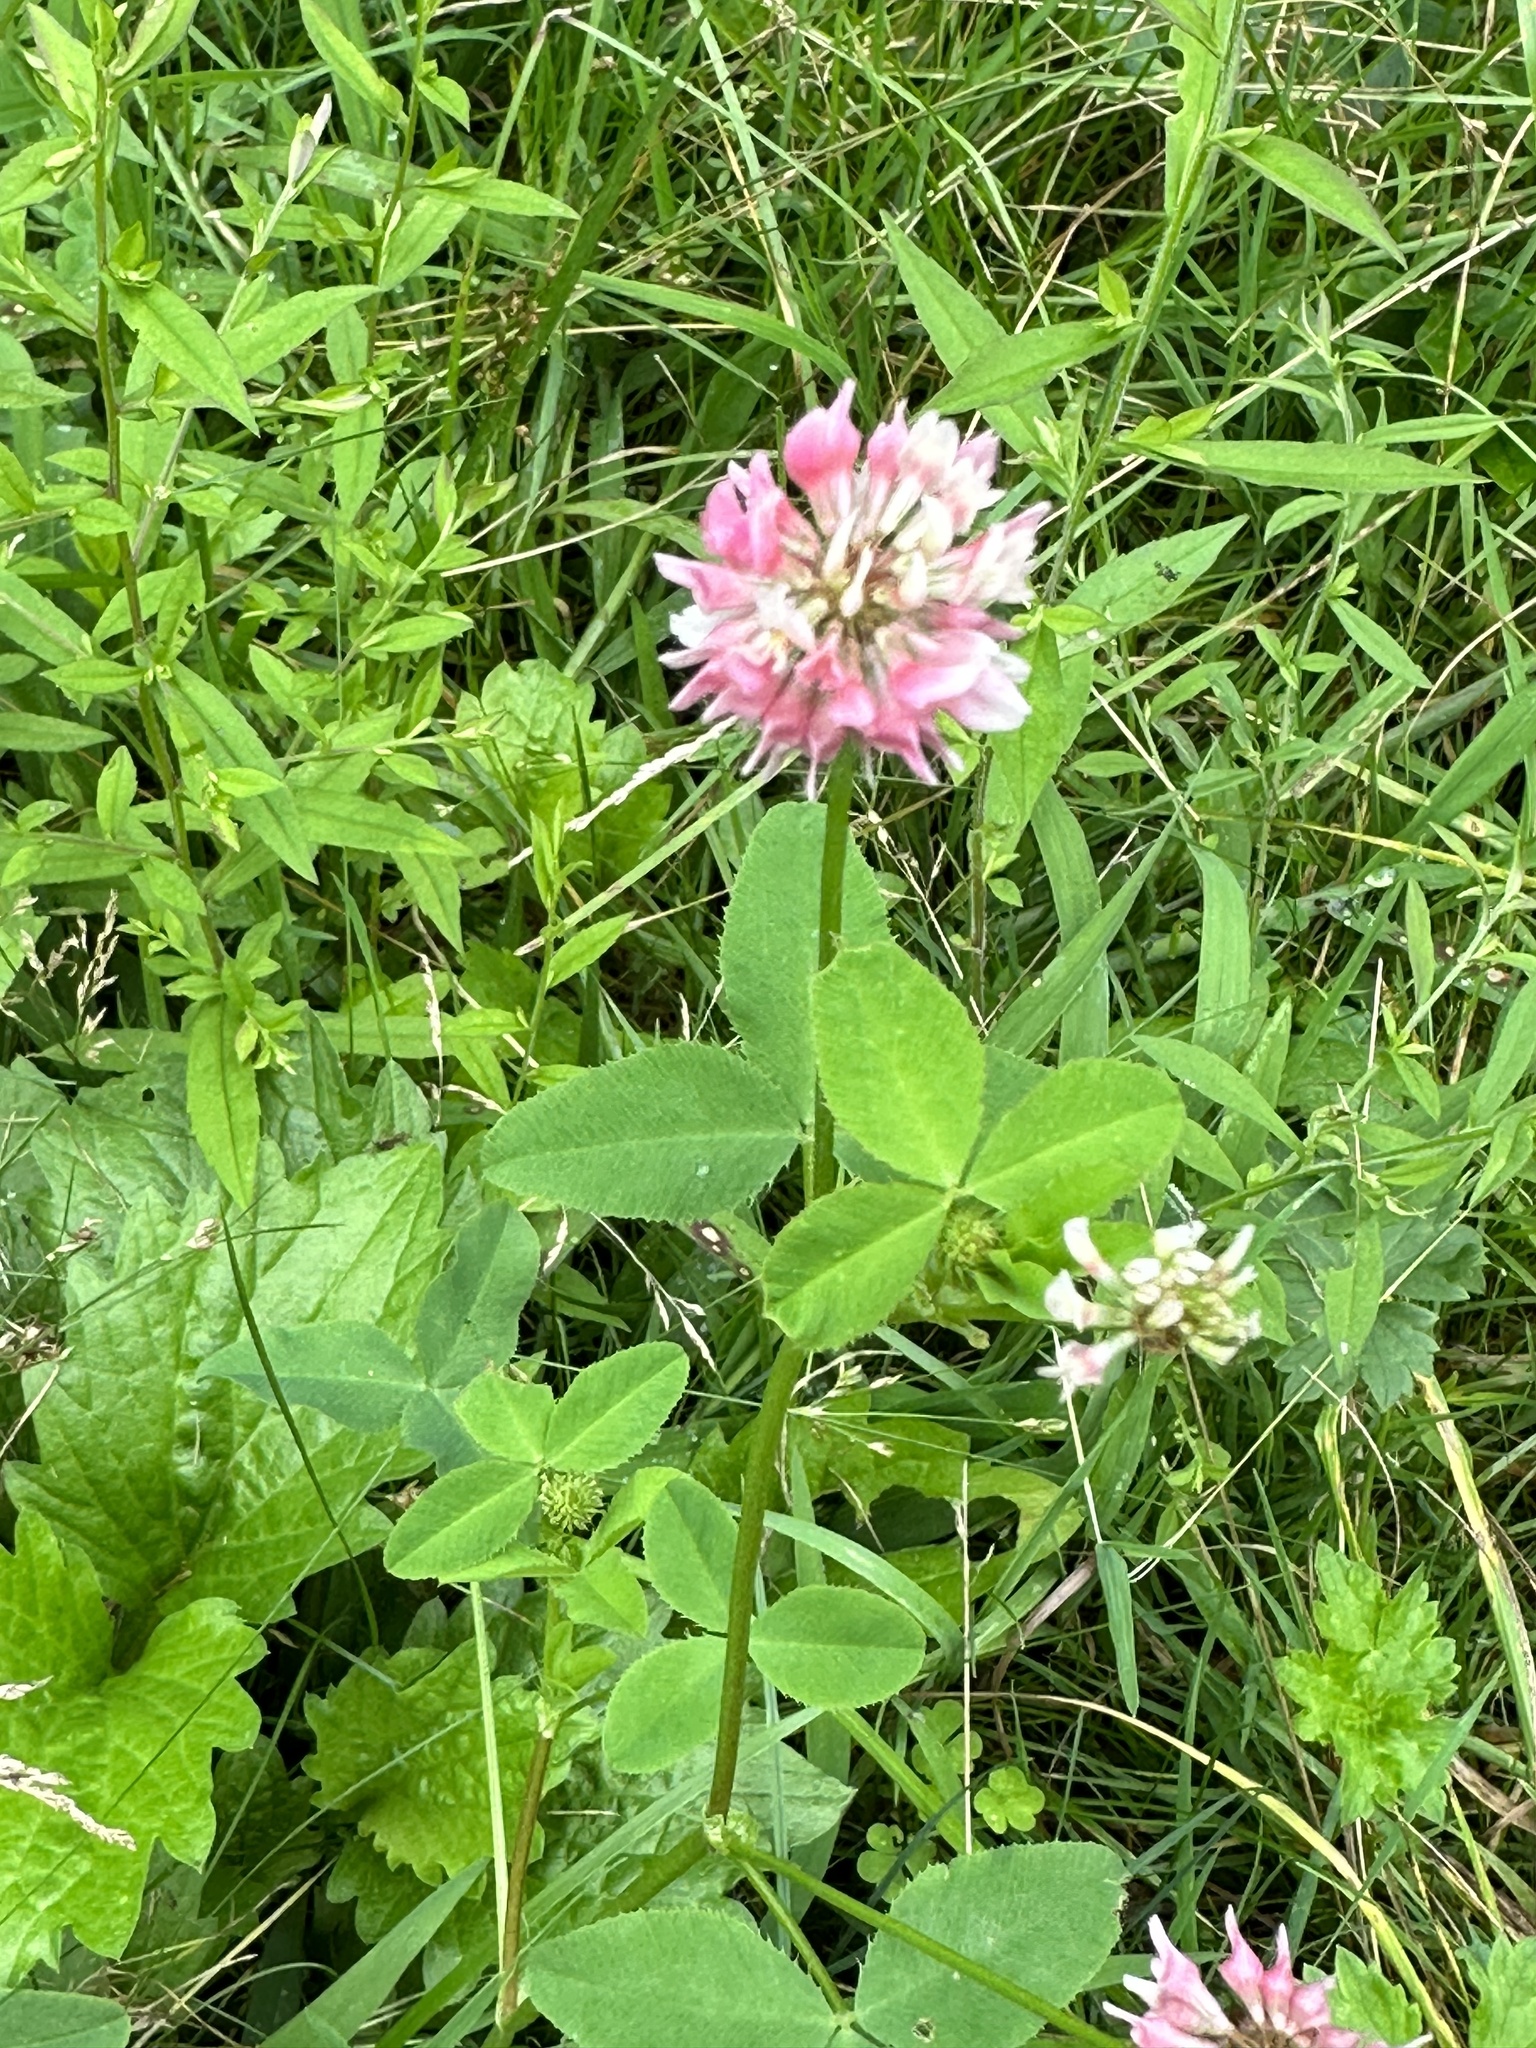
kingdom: Plantae
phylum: Tracheophyta
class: Magnoliopsida
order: Fabales
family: Fabaceae
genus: Trifolium
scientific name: Trifolium hybridum
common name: Alsike clover
